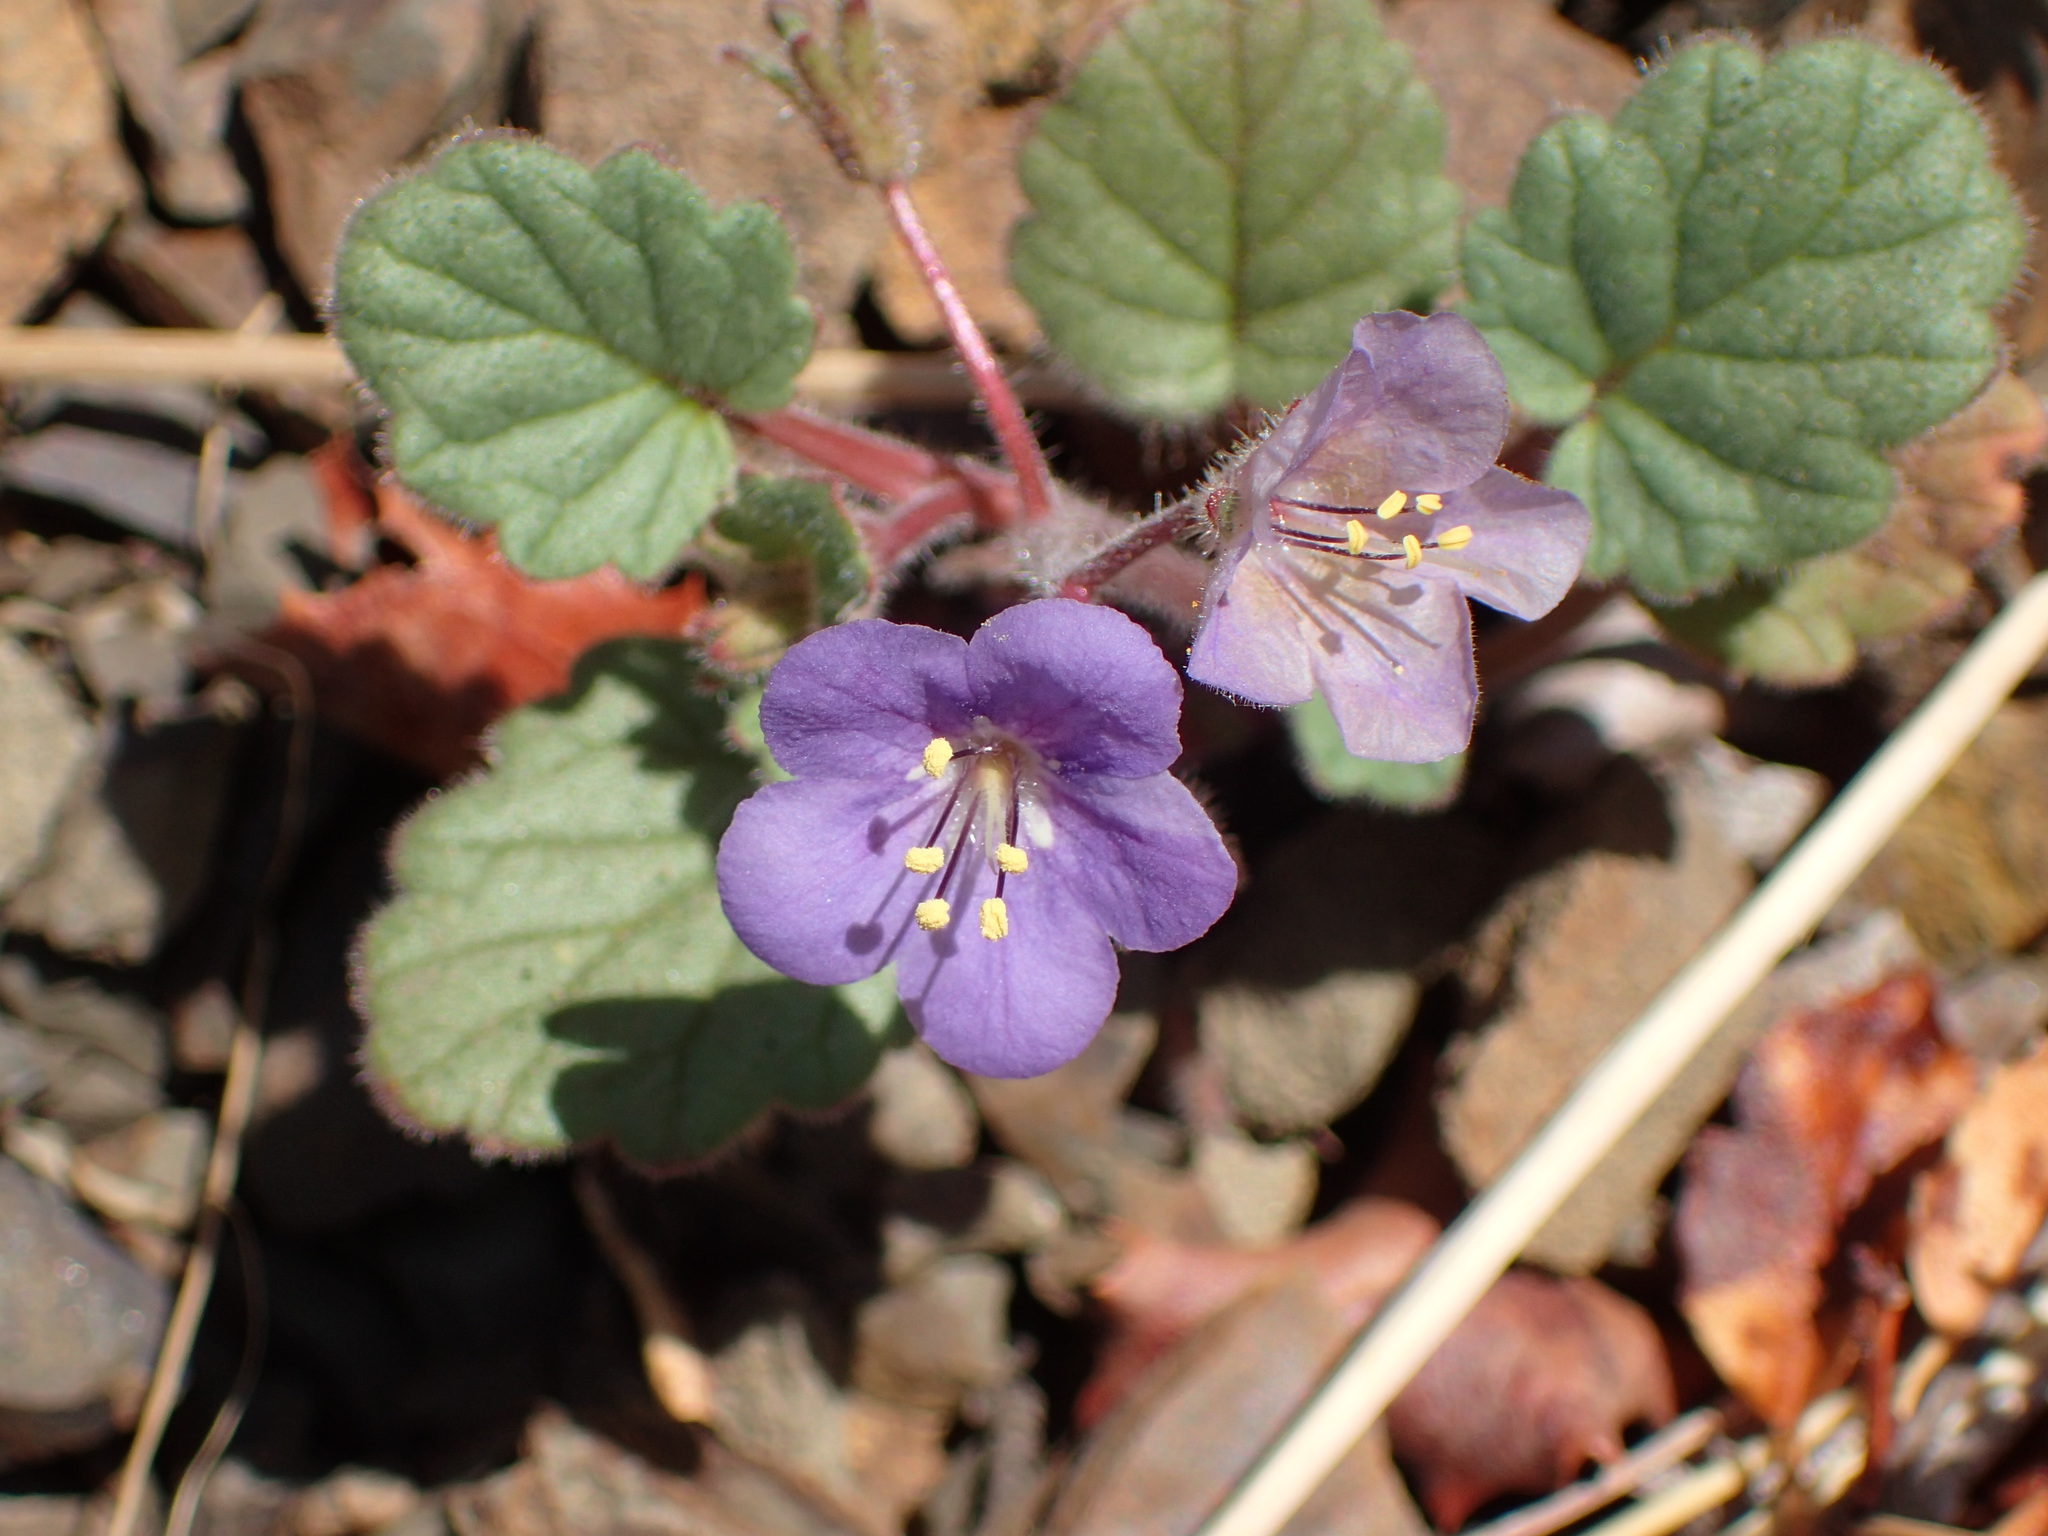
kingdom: Plantae
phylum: Tracheophyta
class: Magnoliopsida
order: Boraginales
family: Hydrophyllaceae
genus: Phacelia
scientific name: Phacelia longipes
